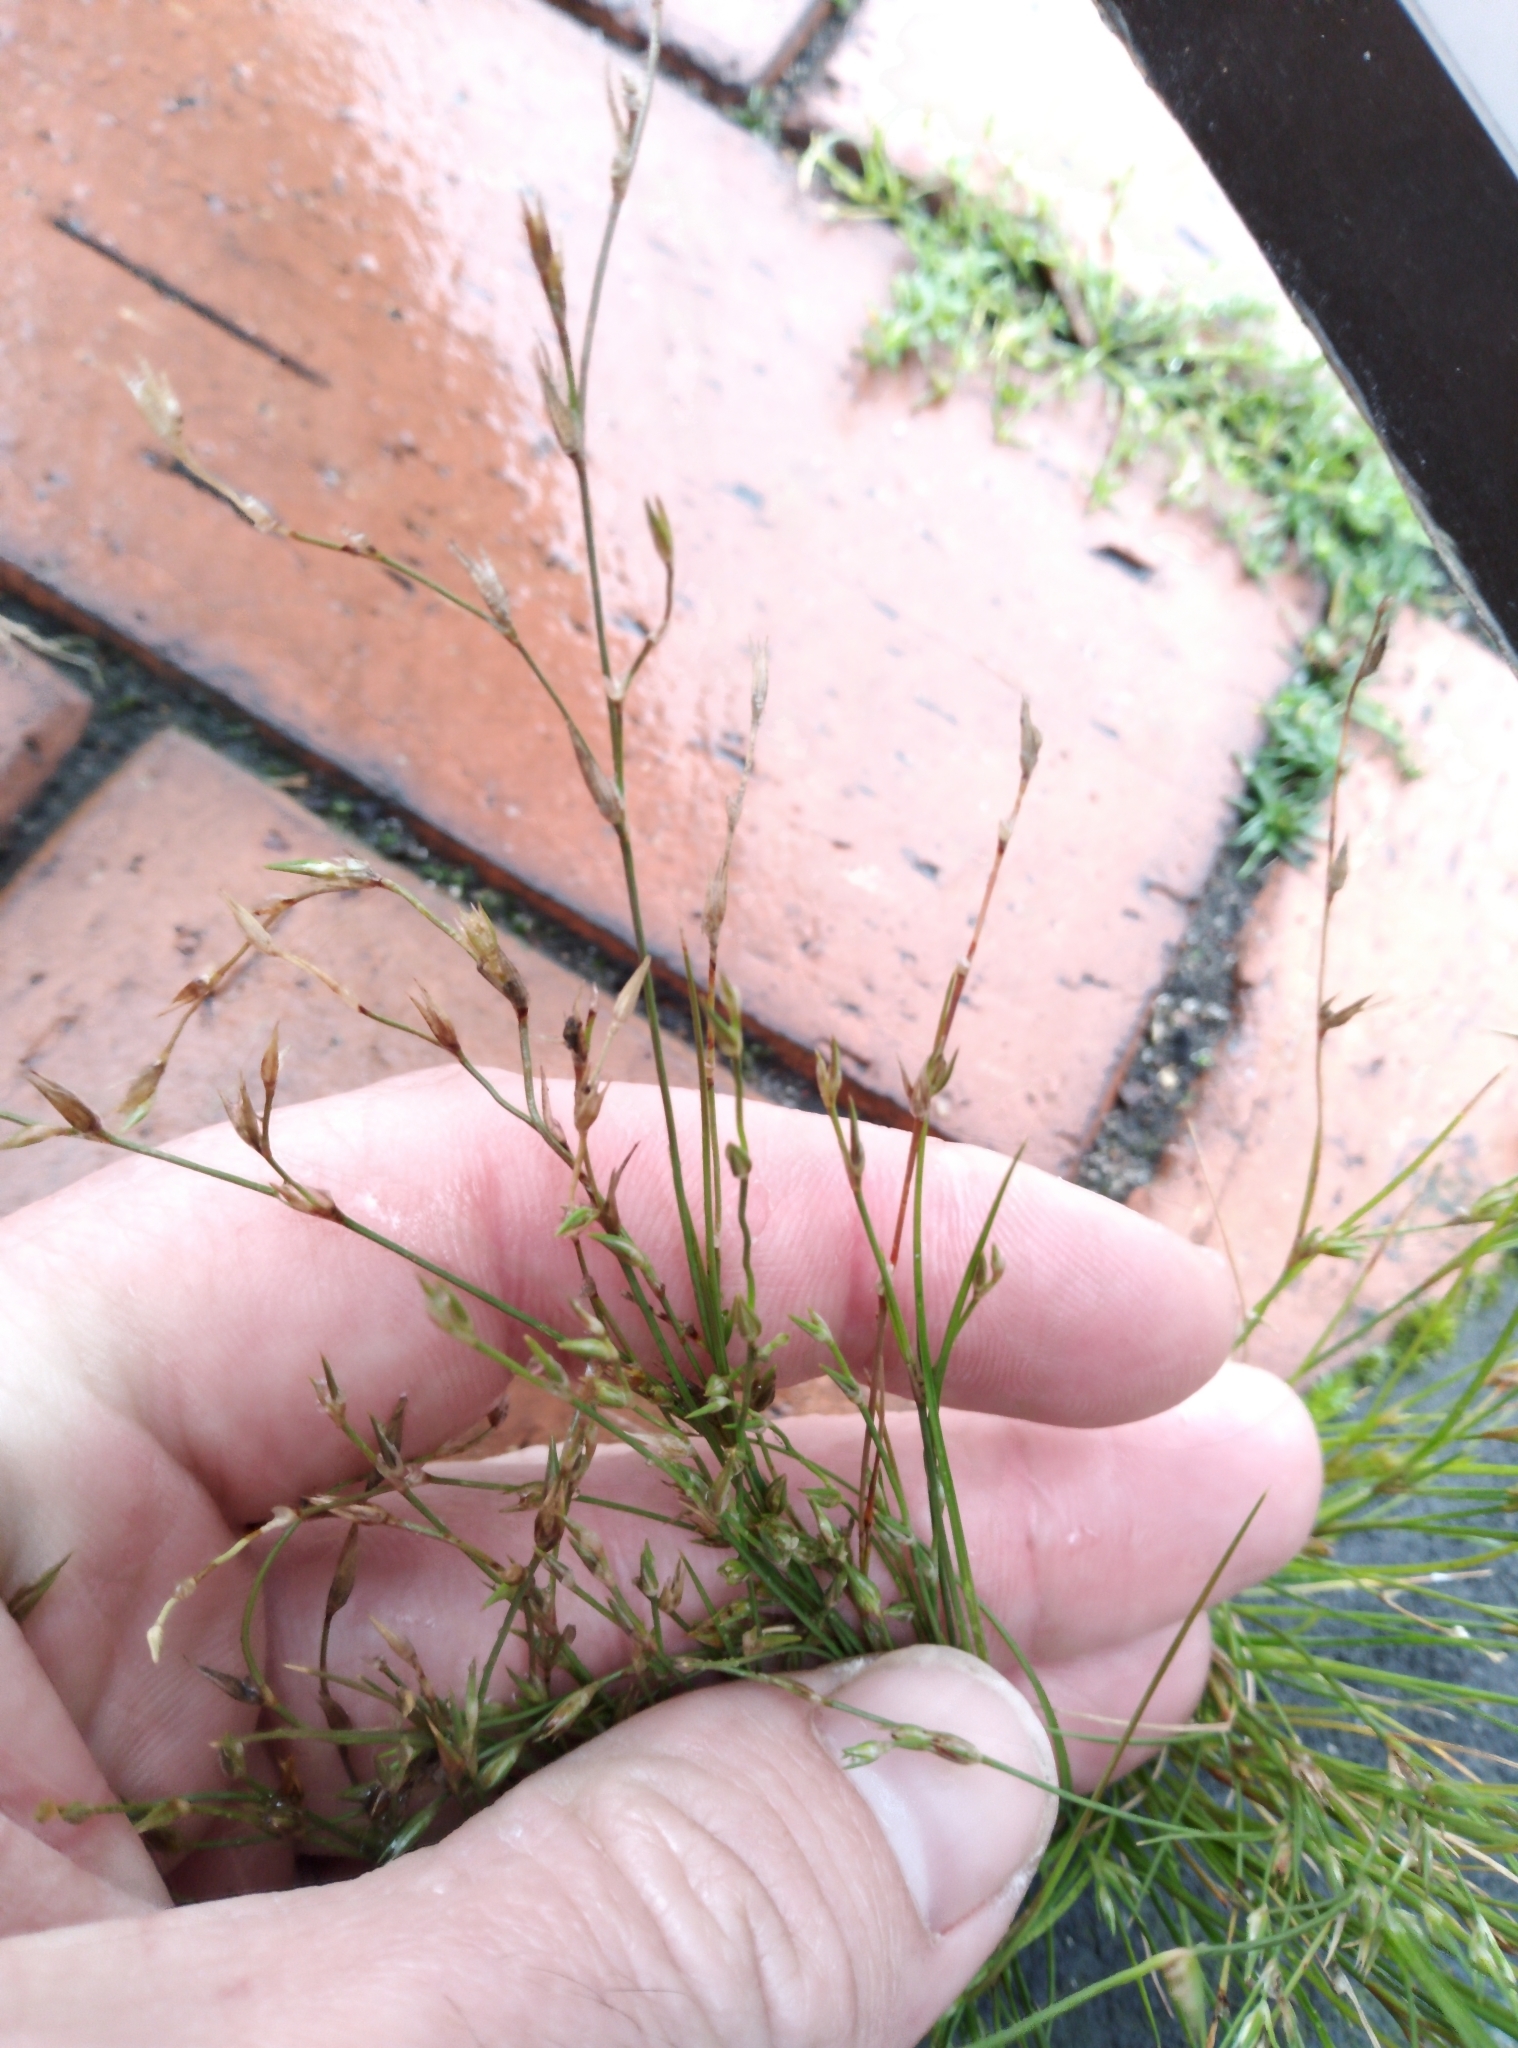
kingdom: Plantae
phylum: Tracheophyta
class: Liliopsida
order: Poales
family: Juncaceae
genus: Juncus
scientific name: Juncus bufonius
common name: Toad rush
